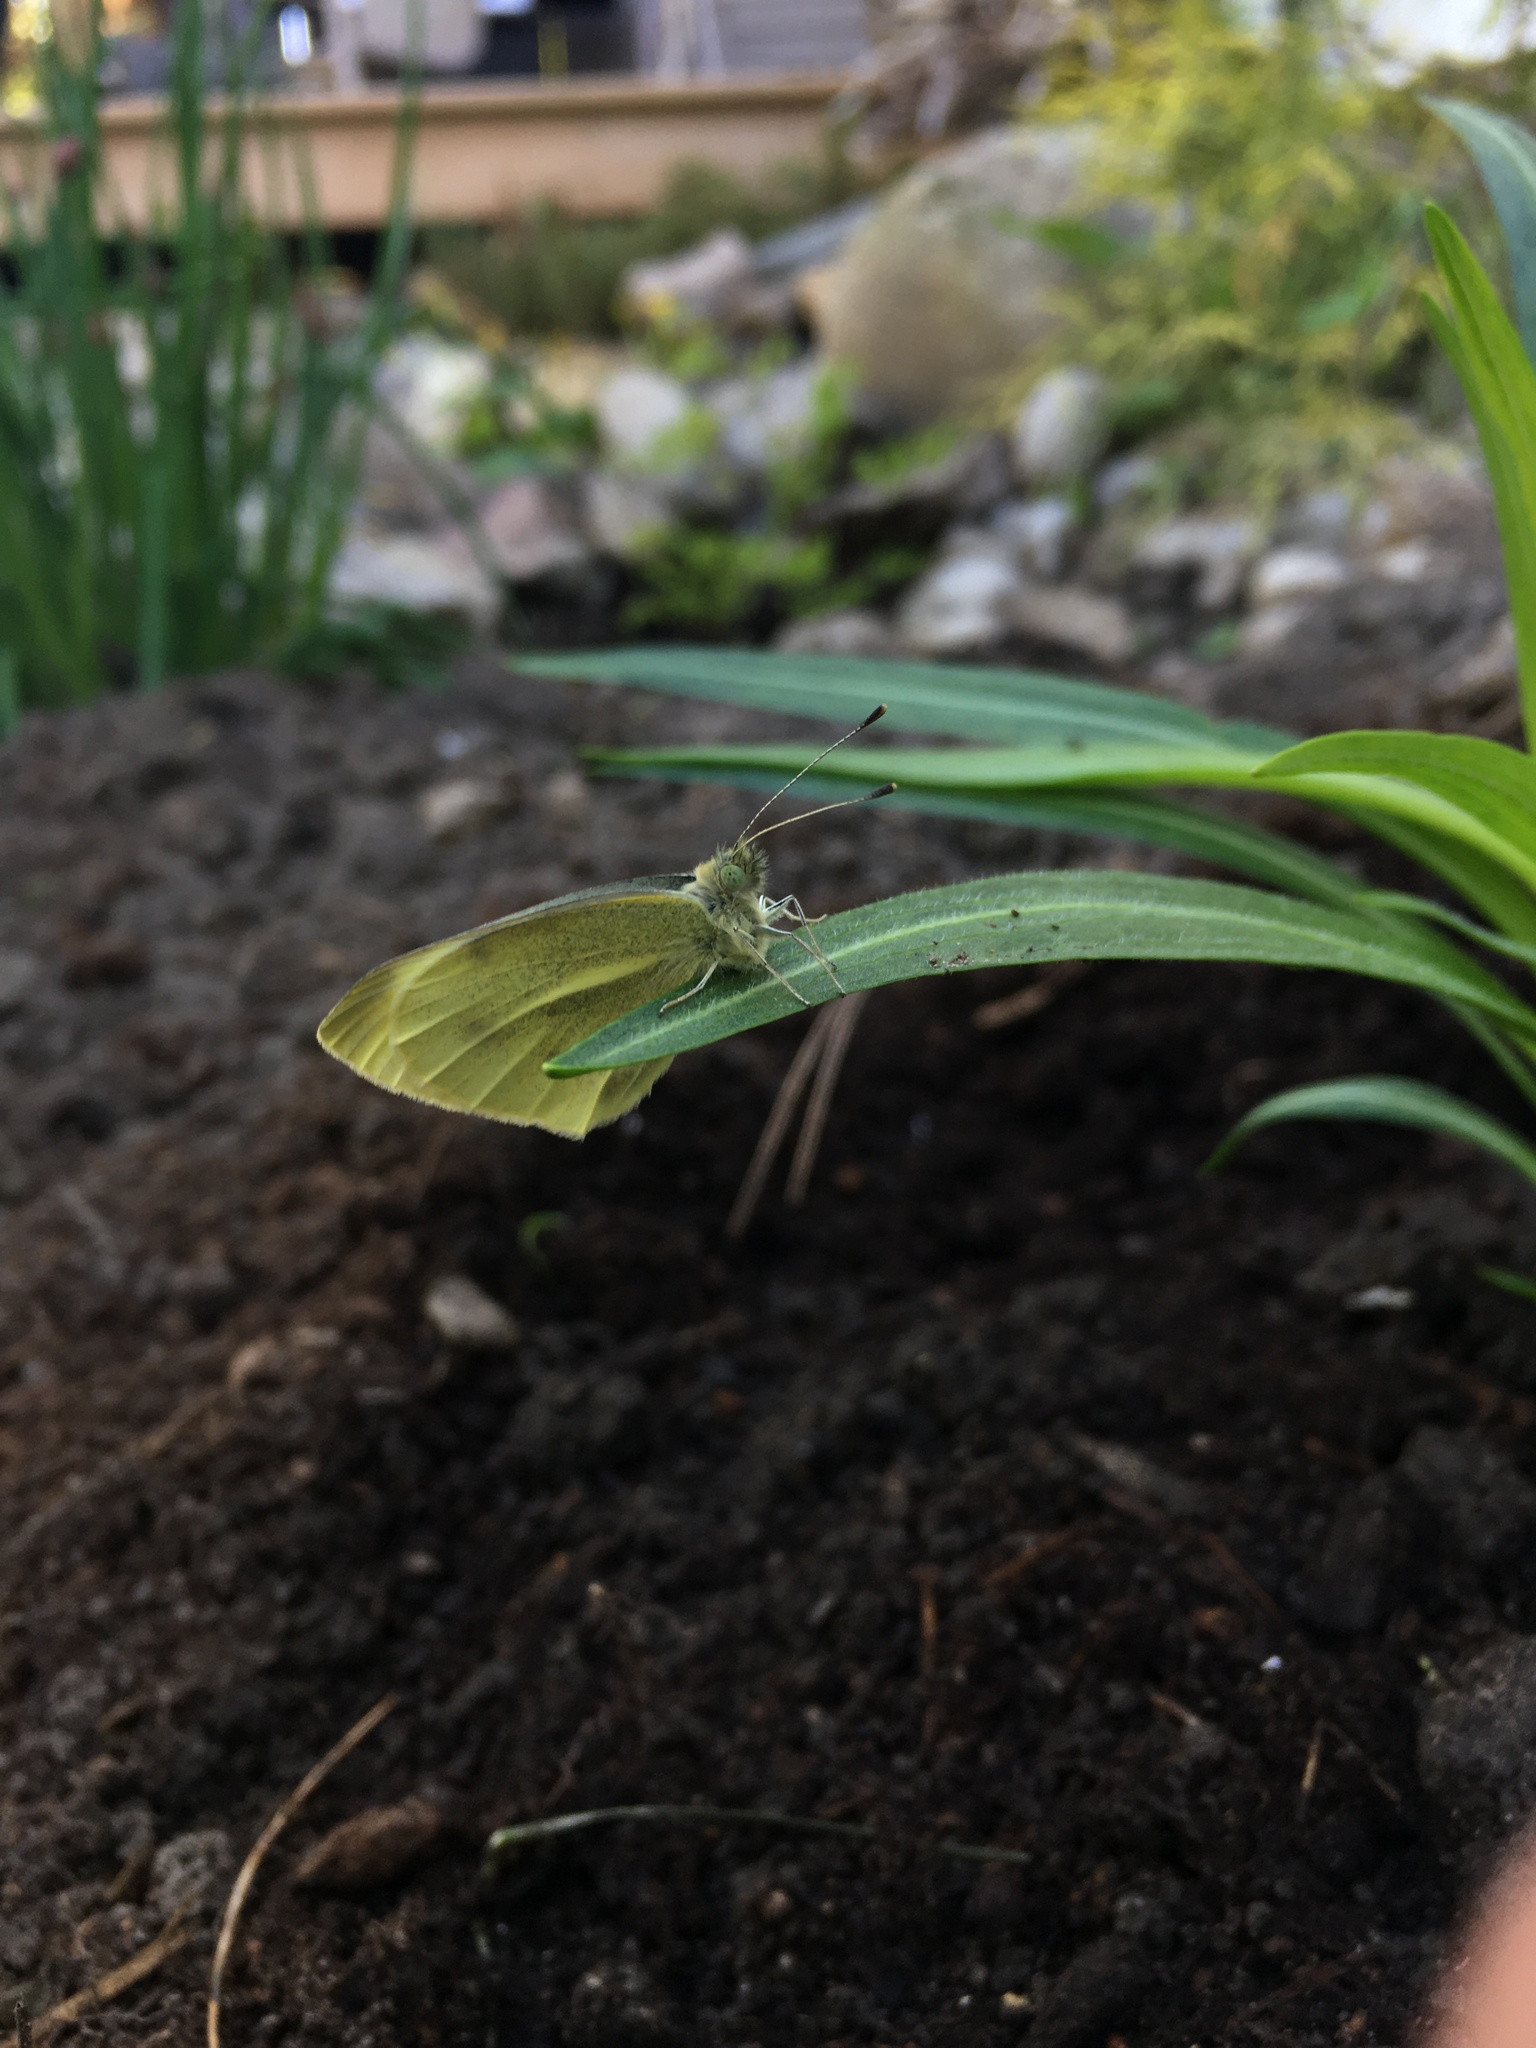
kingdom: Animalia
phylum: Arthropoda
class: Insecta
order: Lepidoptera
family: Pieridae
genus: Pieris
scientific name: Pieris rapae
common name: Small white
